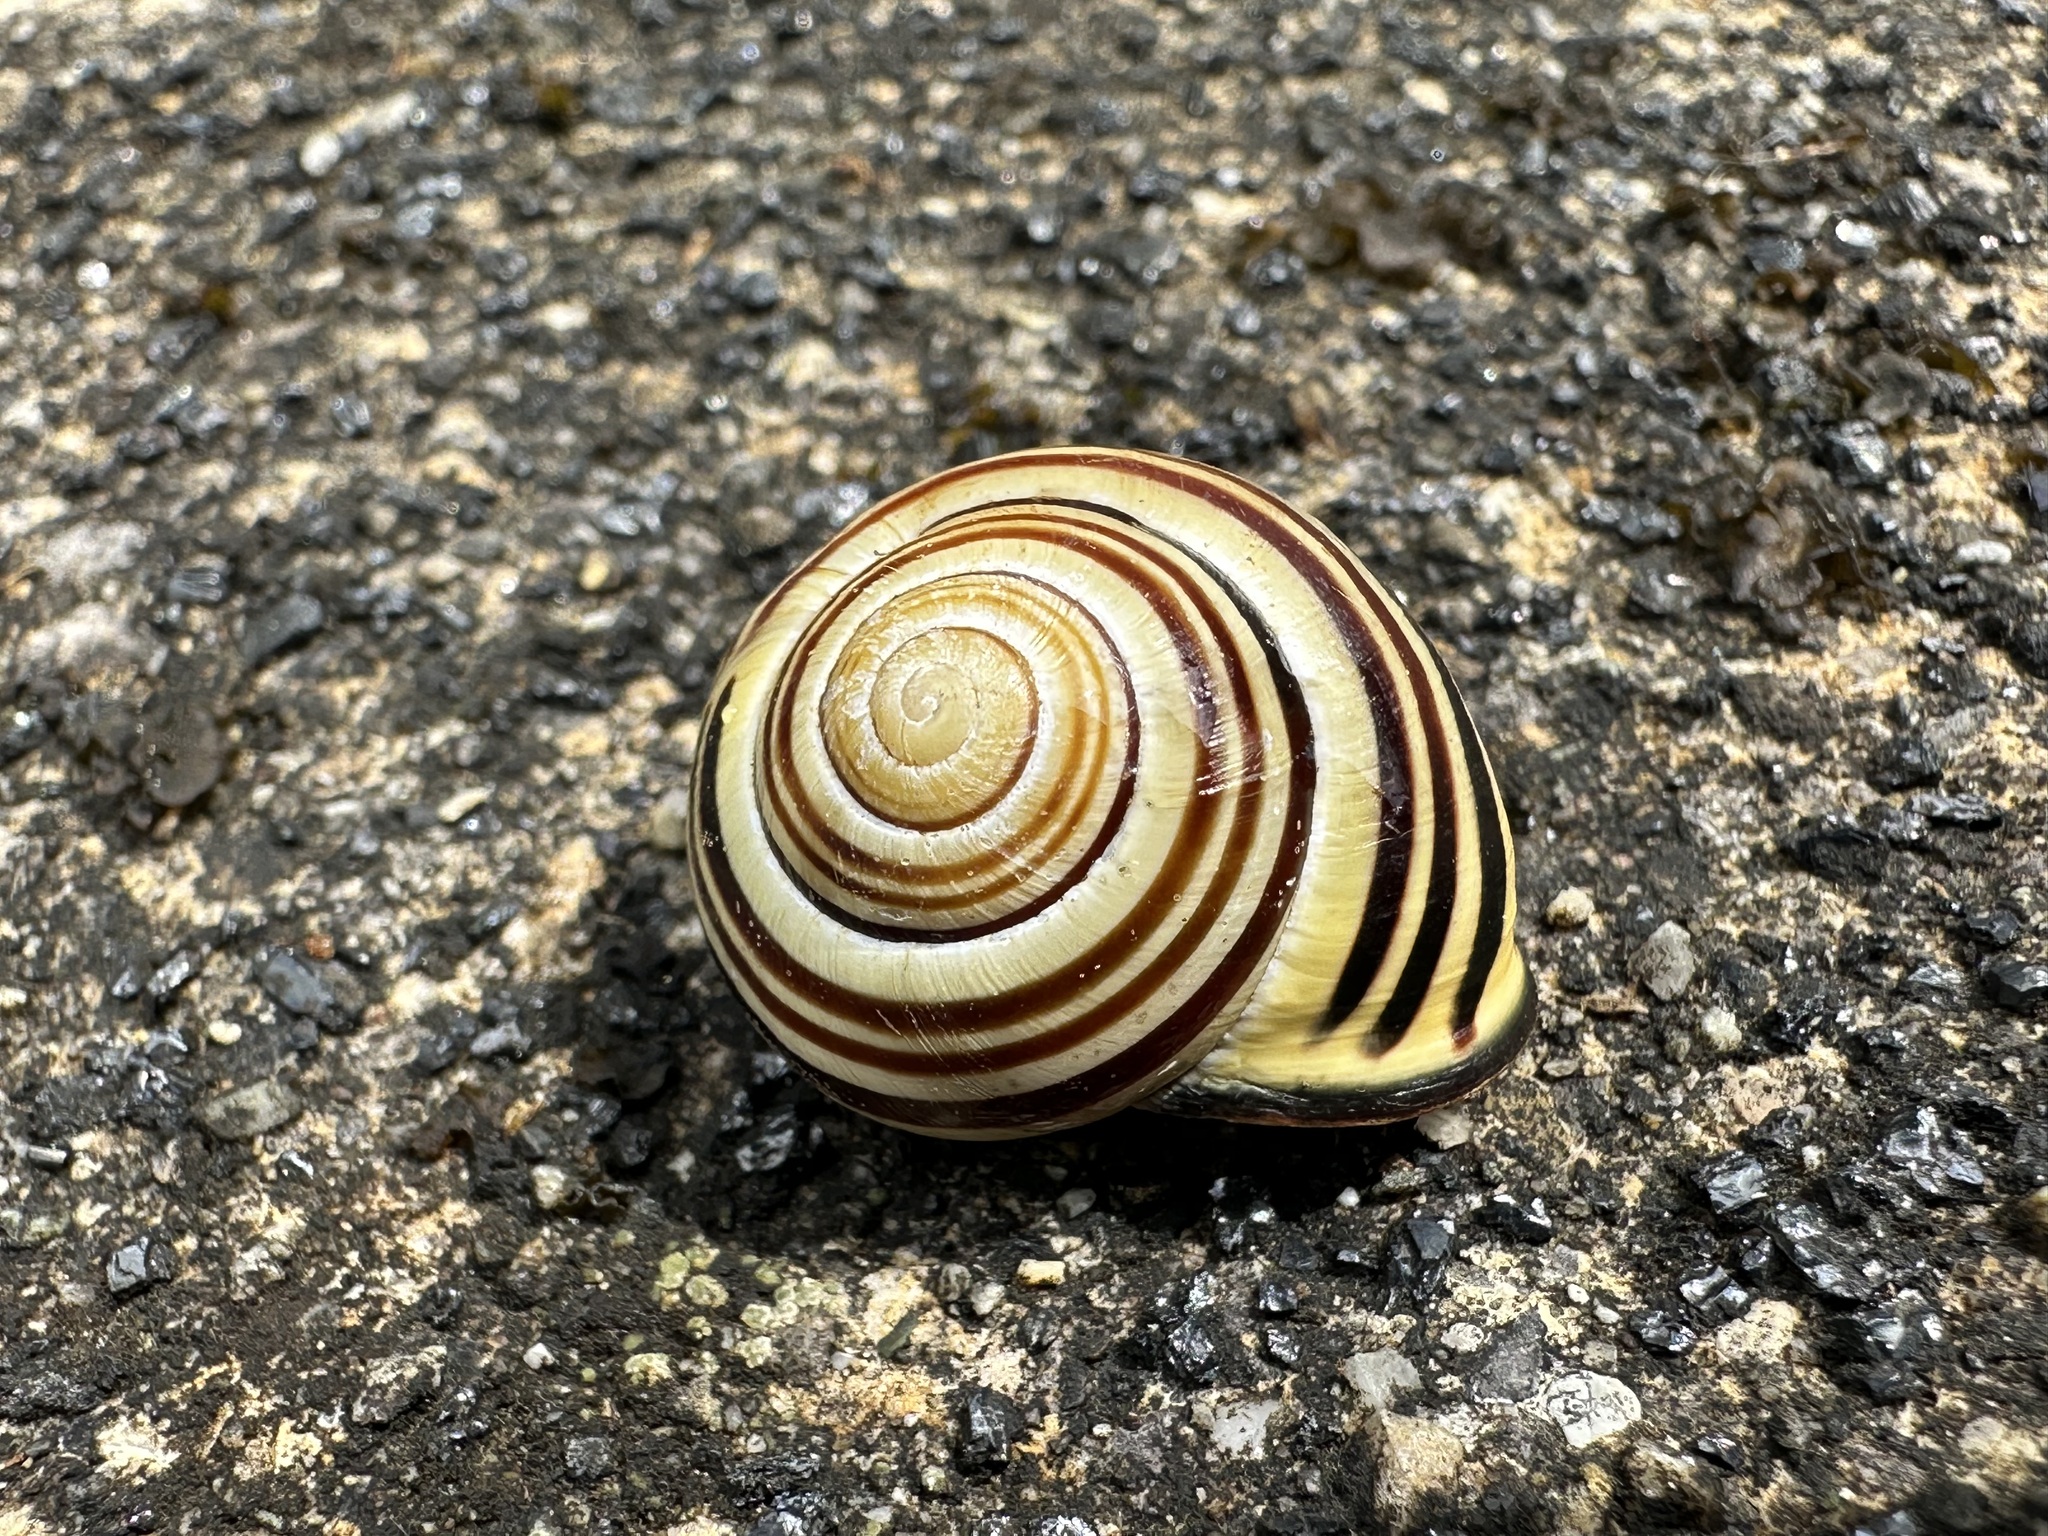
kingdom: Animalia
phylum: Mollusca
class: Gastropoda
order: Stylommatophora
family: Helicidae
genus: Cepaea
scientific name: Cepaea nemoralis
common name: Grovesnail
